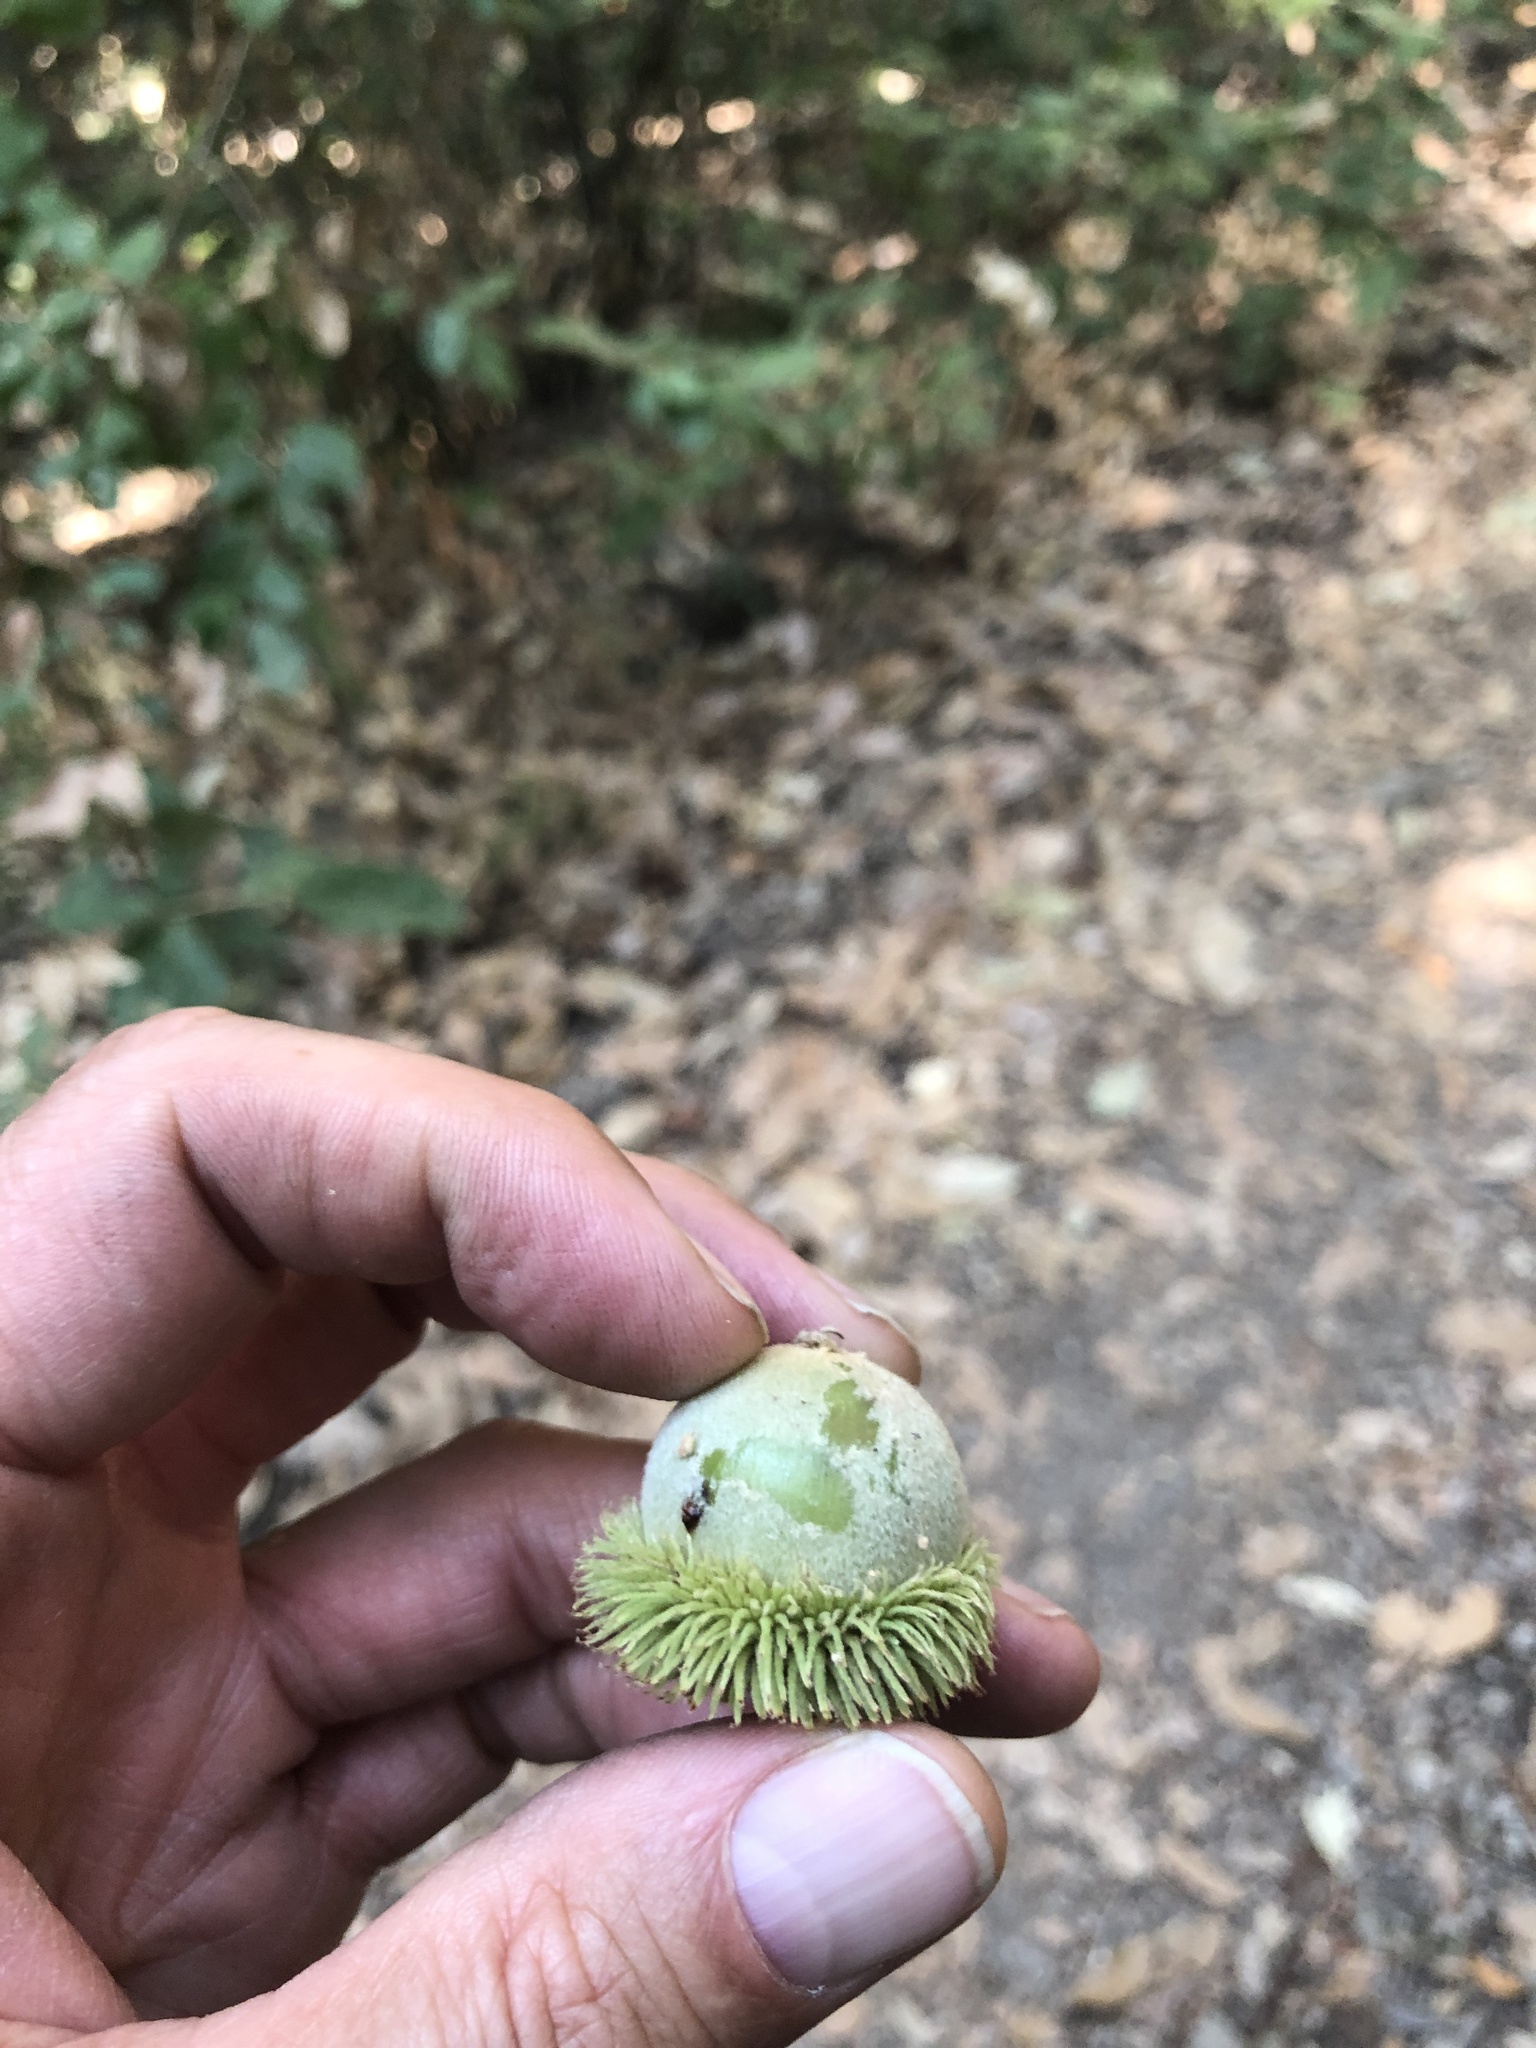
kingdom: Plantae
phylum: Tracheophyta
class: Magnoliopsida
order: Fagales
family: Fagaceae
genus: Notholithocarpus
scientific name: Notholithocarpus densiflorus
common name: Tan bark oak
